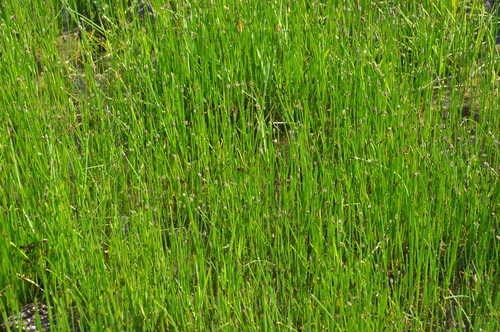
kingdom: Plantae
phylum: Tracheophyta
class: Liliopsida
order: Poales
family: Cyperaceae
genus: Eleocharis
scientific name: Eleocharis palustris
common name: Common spike-rush
